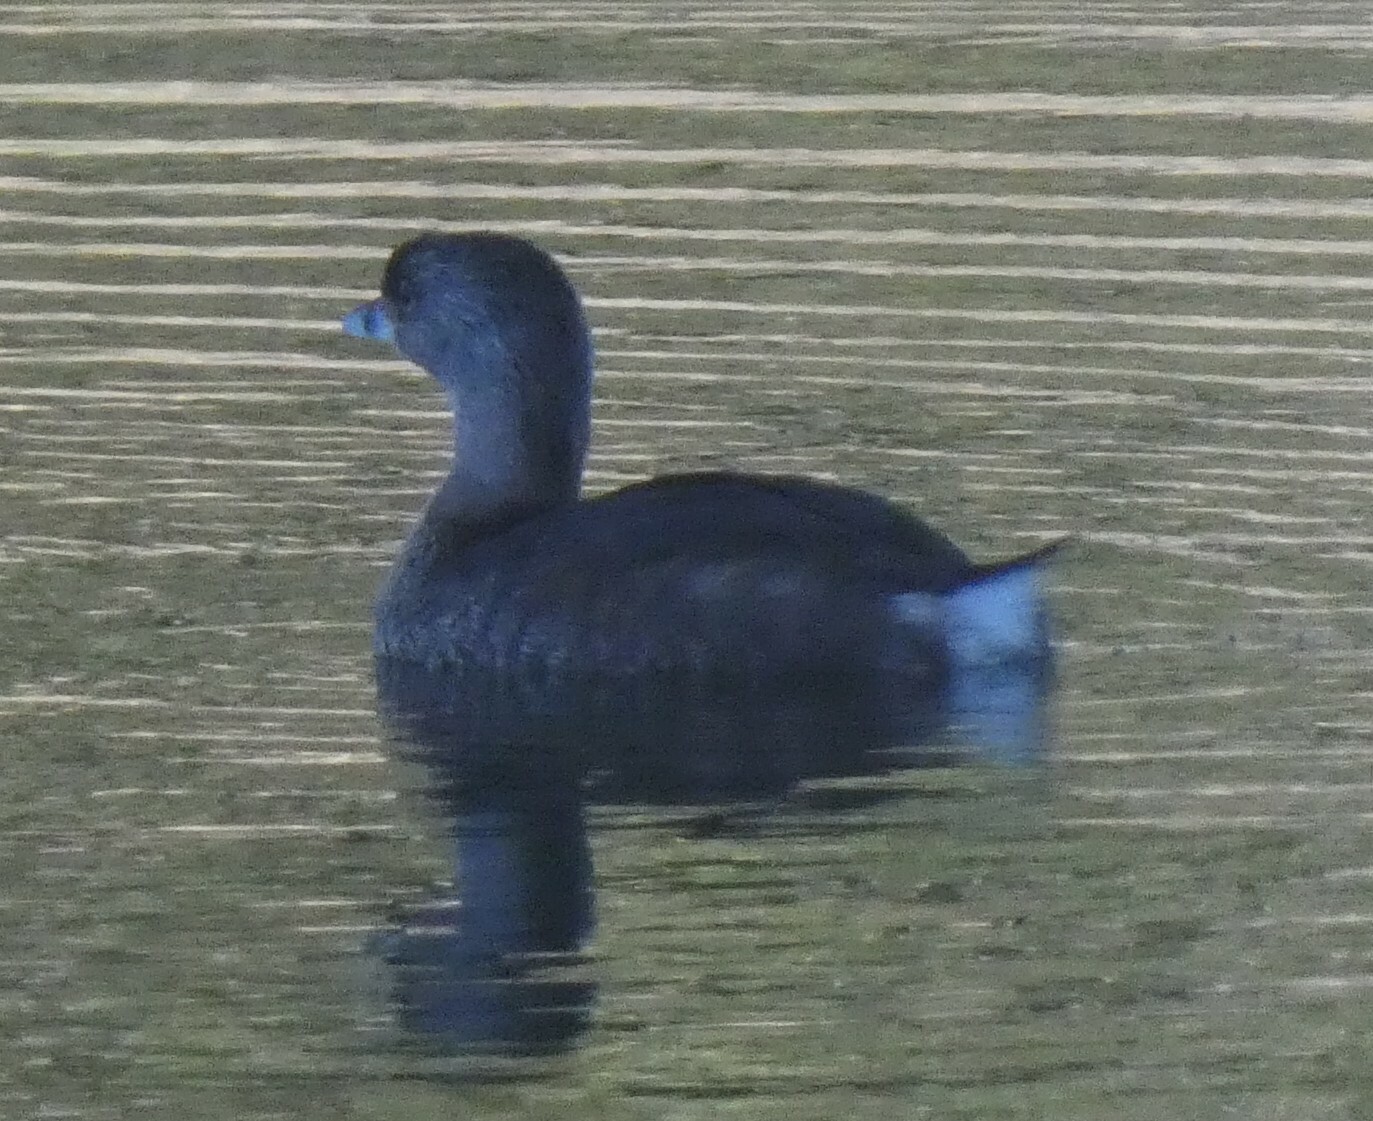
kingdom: Animalia
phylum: Chordata
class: Aves
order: Podicipediformes
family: Podicipedidae
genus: Podilymbus
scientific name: Podilymbus podiceps
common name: Pied-billed grebe
